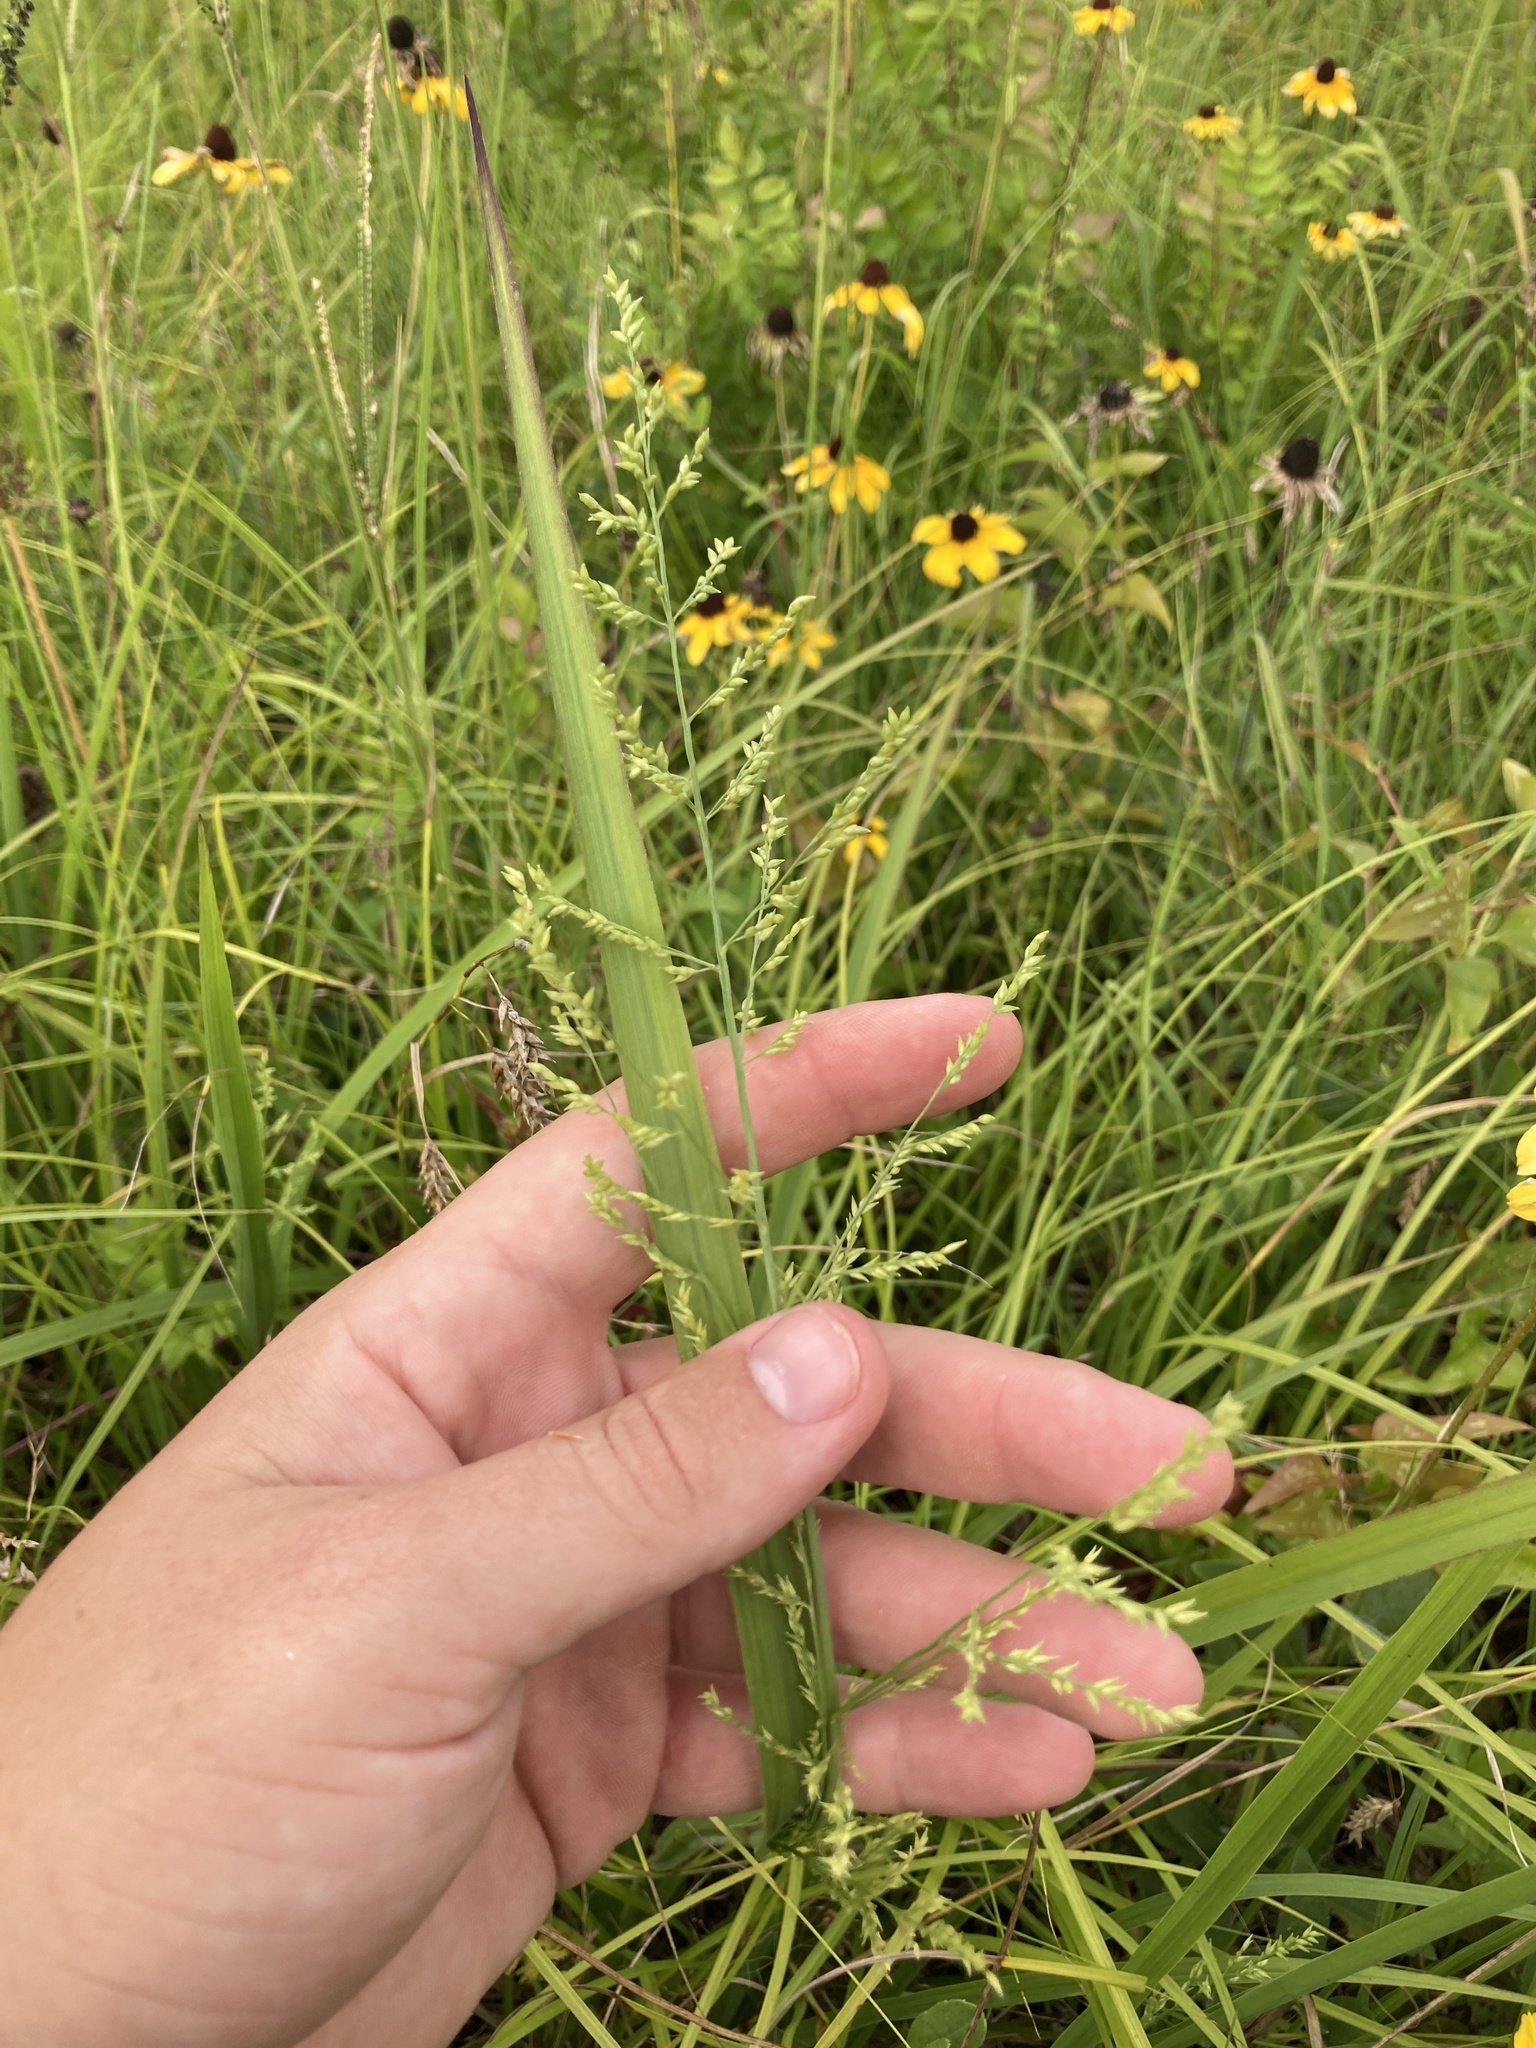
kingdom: Plantae
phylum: Tracheophyta
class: Liliopsida
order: Poales
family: Poaceae
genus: Coleataenia
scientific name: Coleataenia anceps
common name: Beaked panic grass
